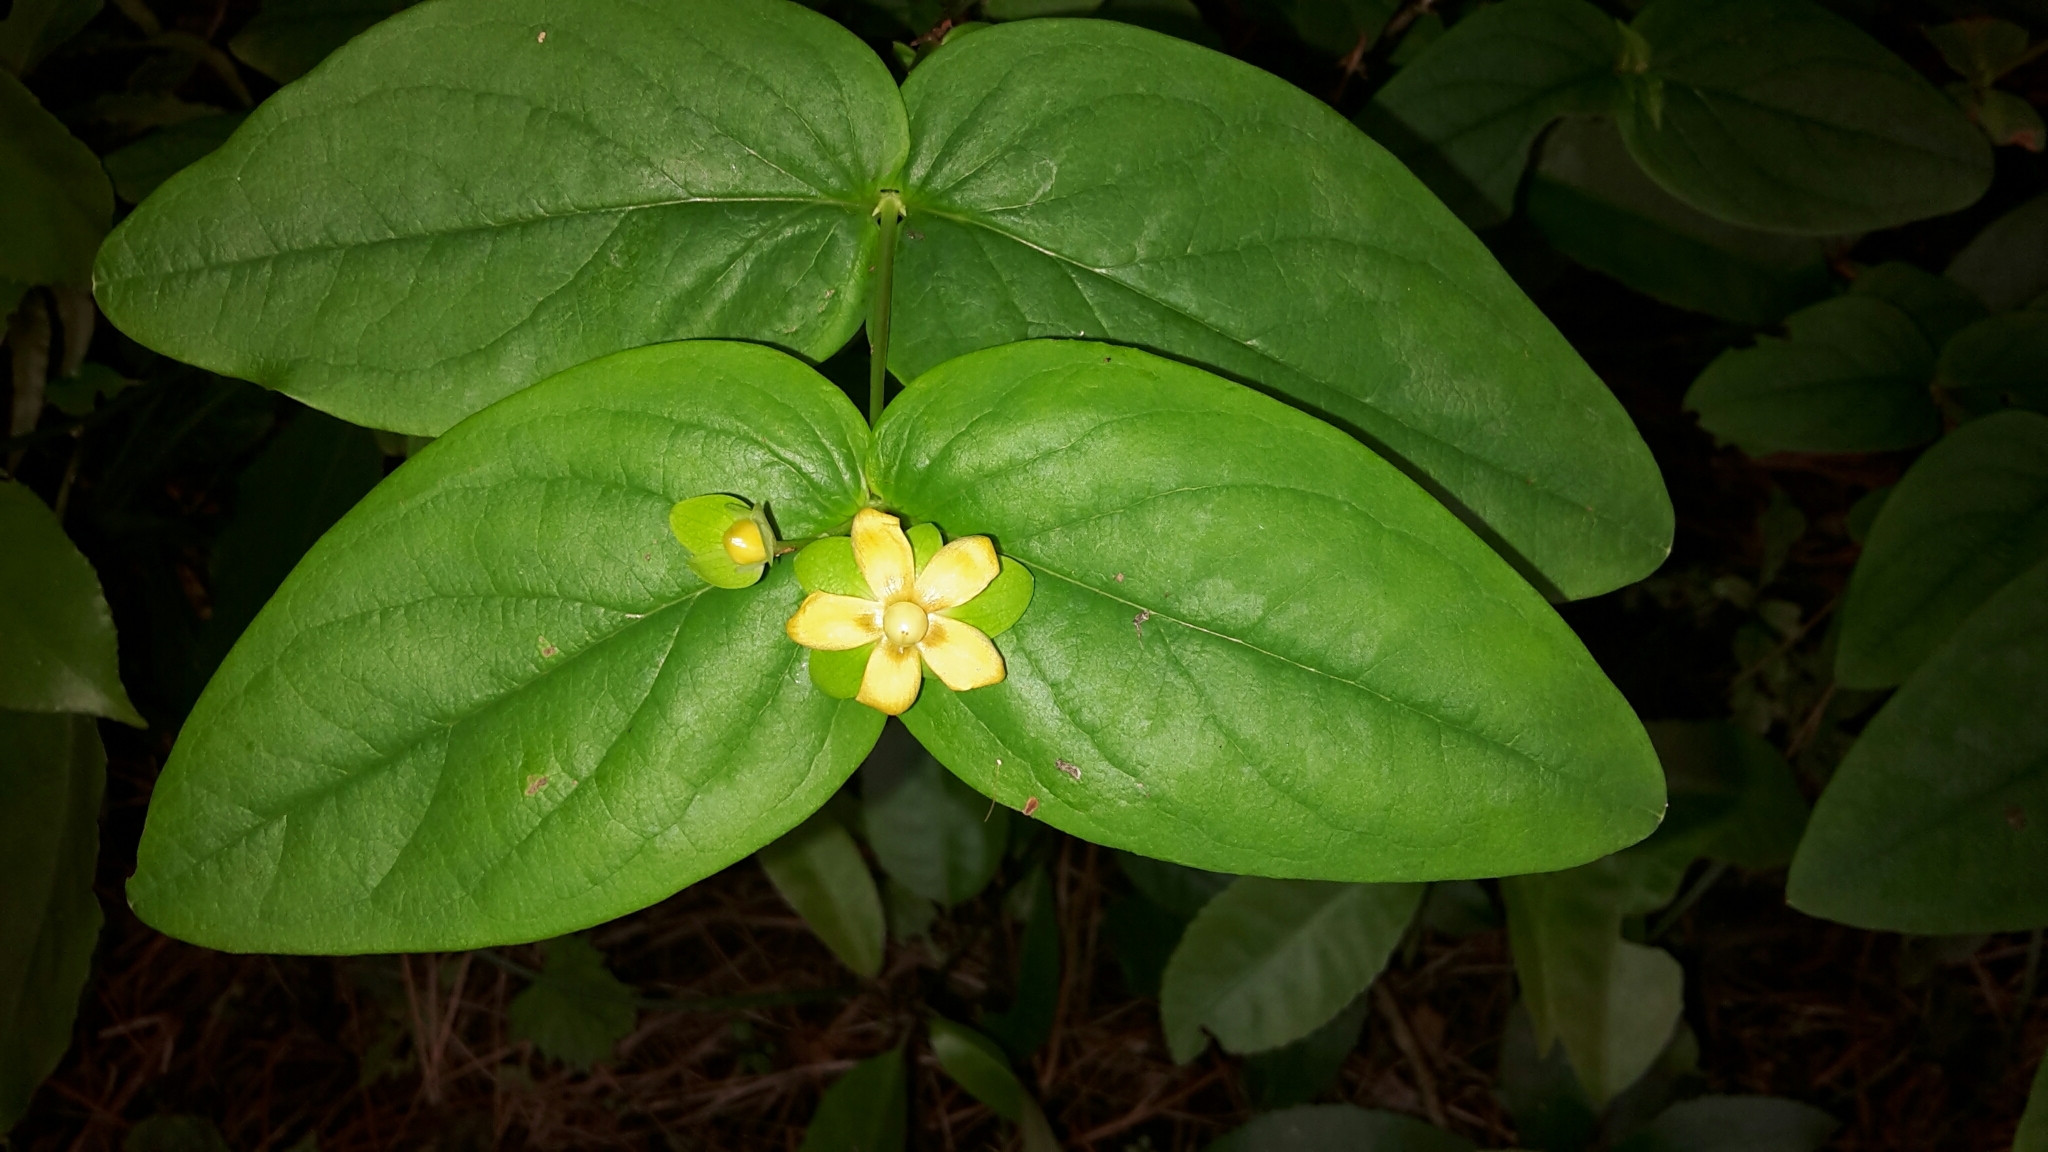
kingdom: Plantae
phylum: Tracheophyta
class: Magnoliopsida
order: Malpighiales
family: Hypericaceae
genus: Hypericum
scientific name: Hypericum androsaemum
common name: Sweet-amber
